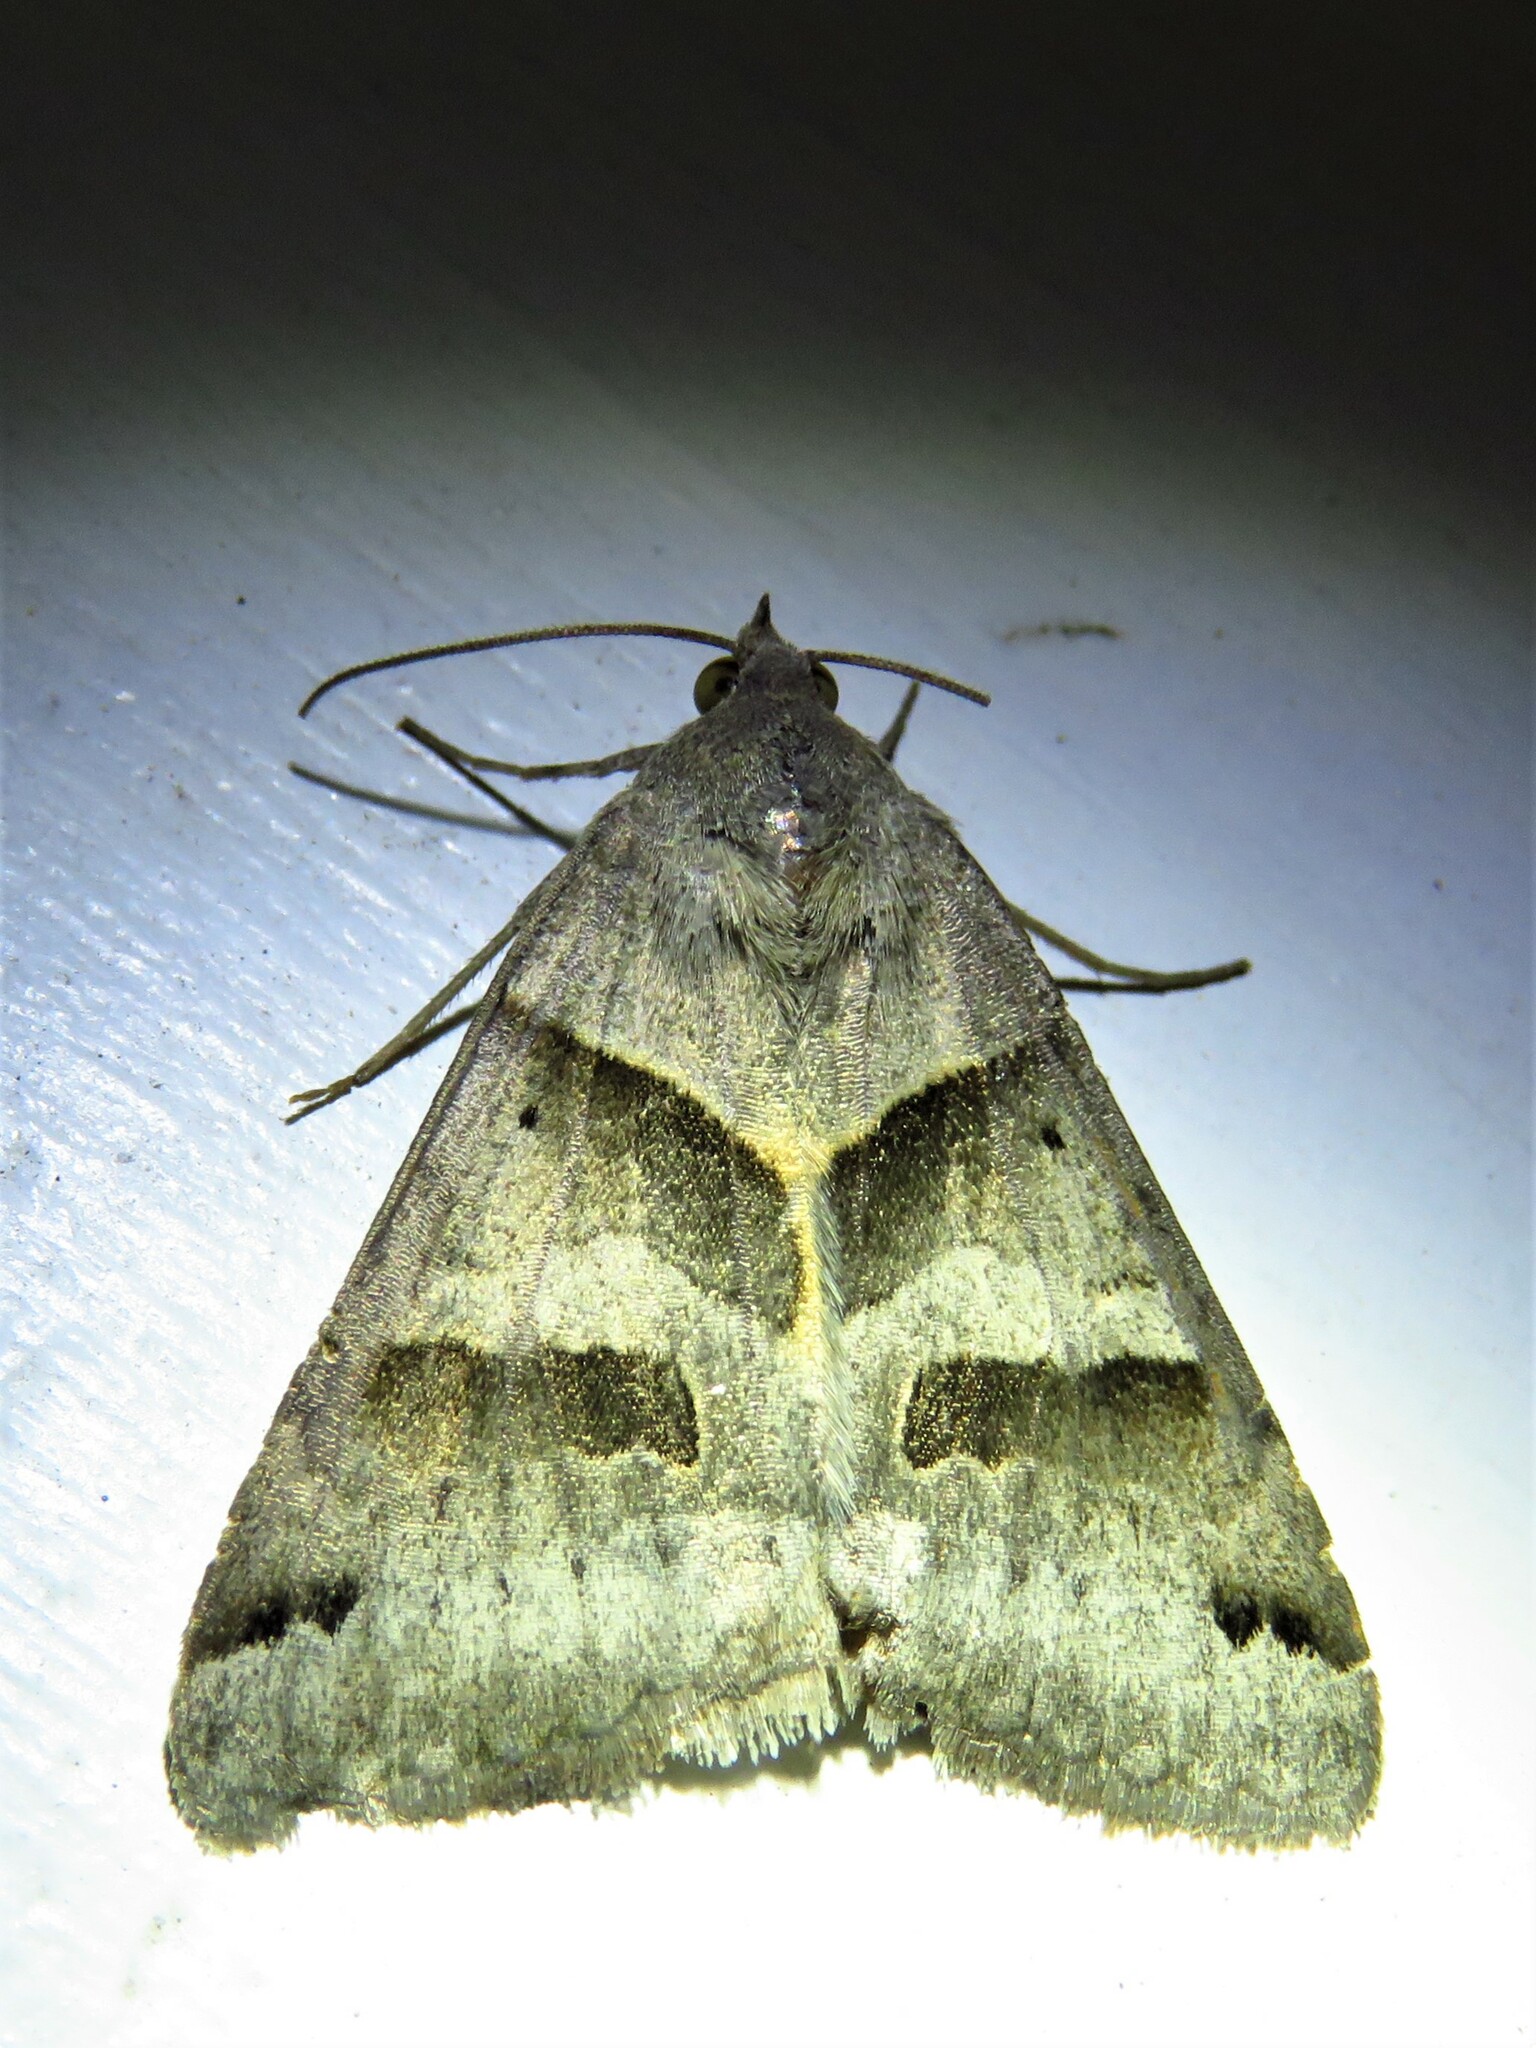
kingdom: Animalia
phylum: Arthropoda
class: Insecta
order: Lepidoptera
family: Erebidae
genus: Caenurgina
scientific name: Caenurgina erechtea
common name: Forage looper moth
